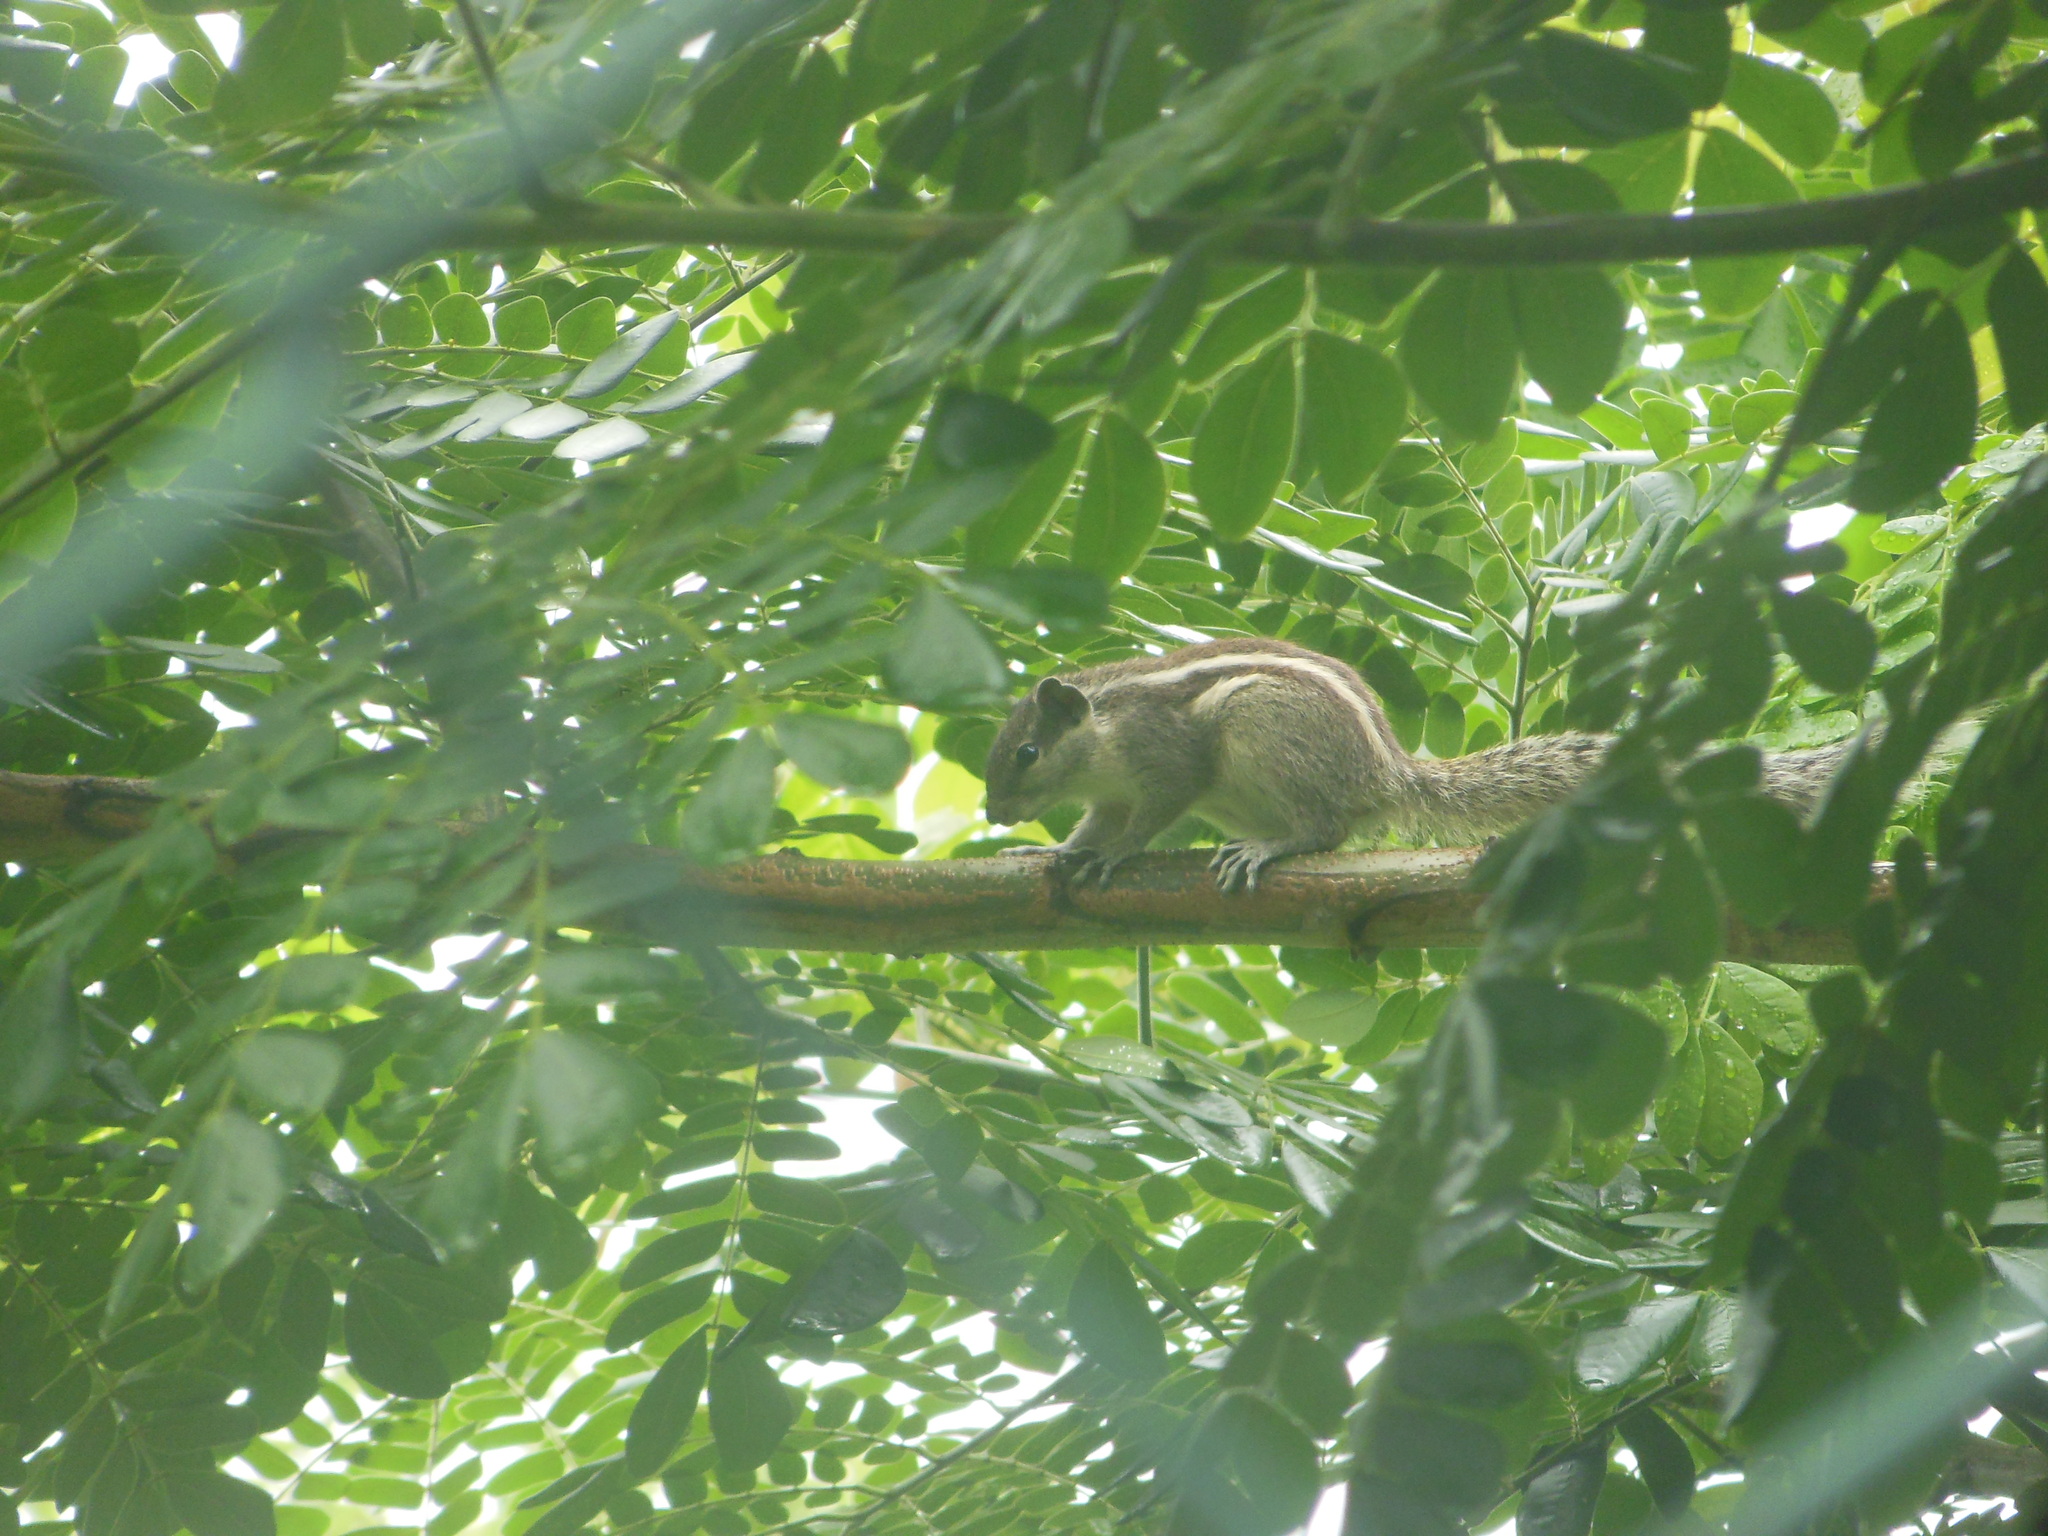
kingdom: Animalia
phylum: Chordata
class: Mammalia
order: Rodentia
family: Sciuridae
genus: Funambulus
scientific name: Funambulus pennantii
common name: Northern palm squirrel
